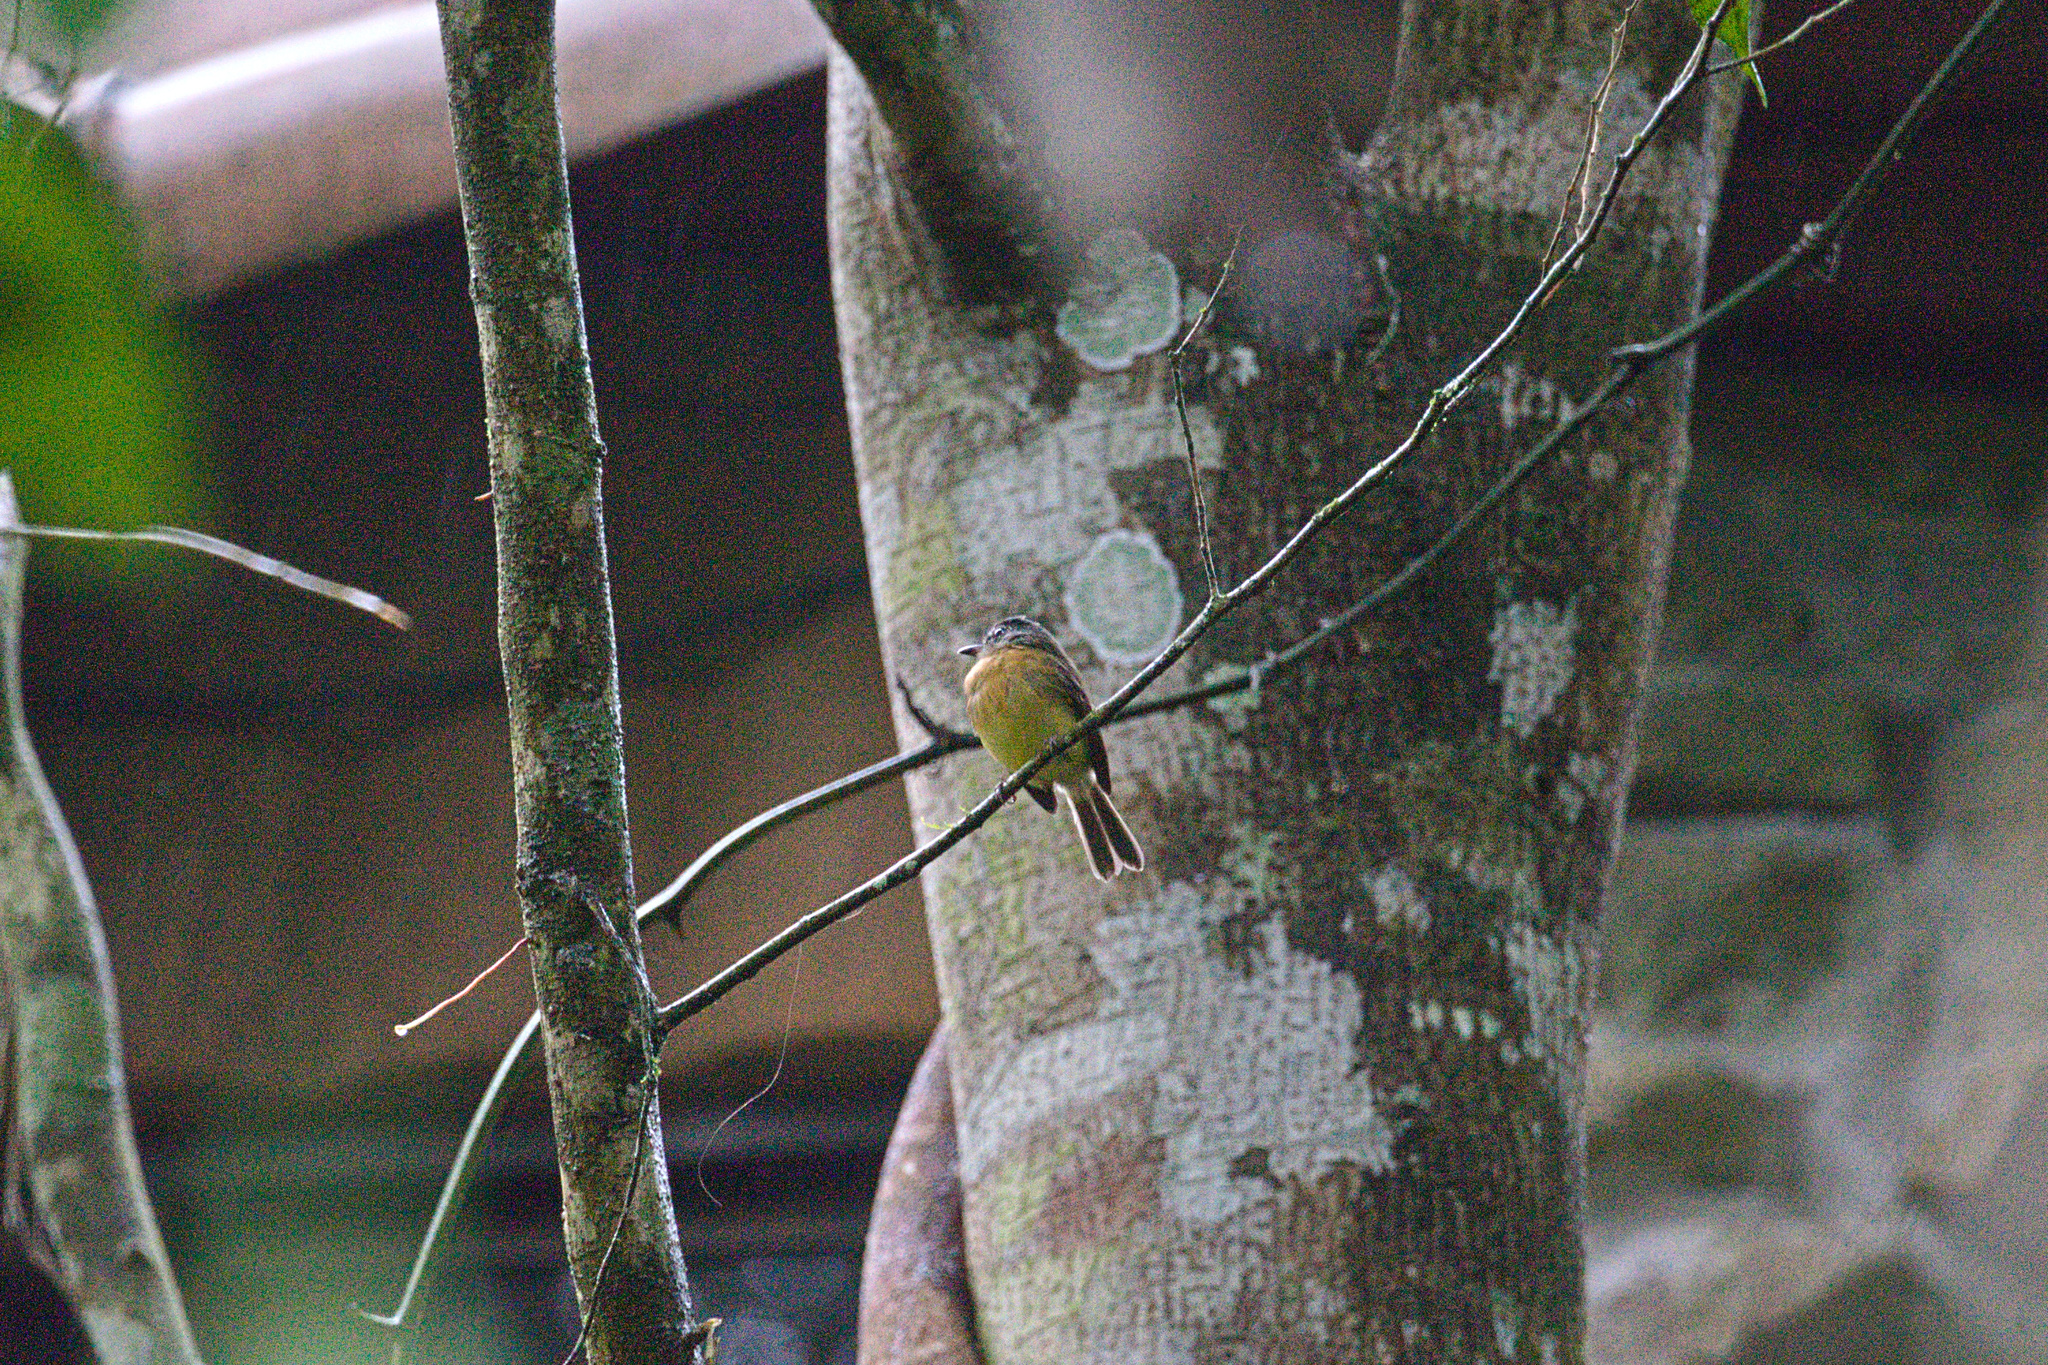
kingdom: Animalia
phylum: Chordata
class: Aves
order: Passeriformes
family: Tyrannidae
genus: Aphanotriccus
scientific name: Aphanotriccus capitalis
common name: Tawny-chested flycatcher
